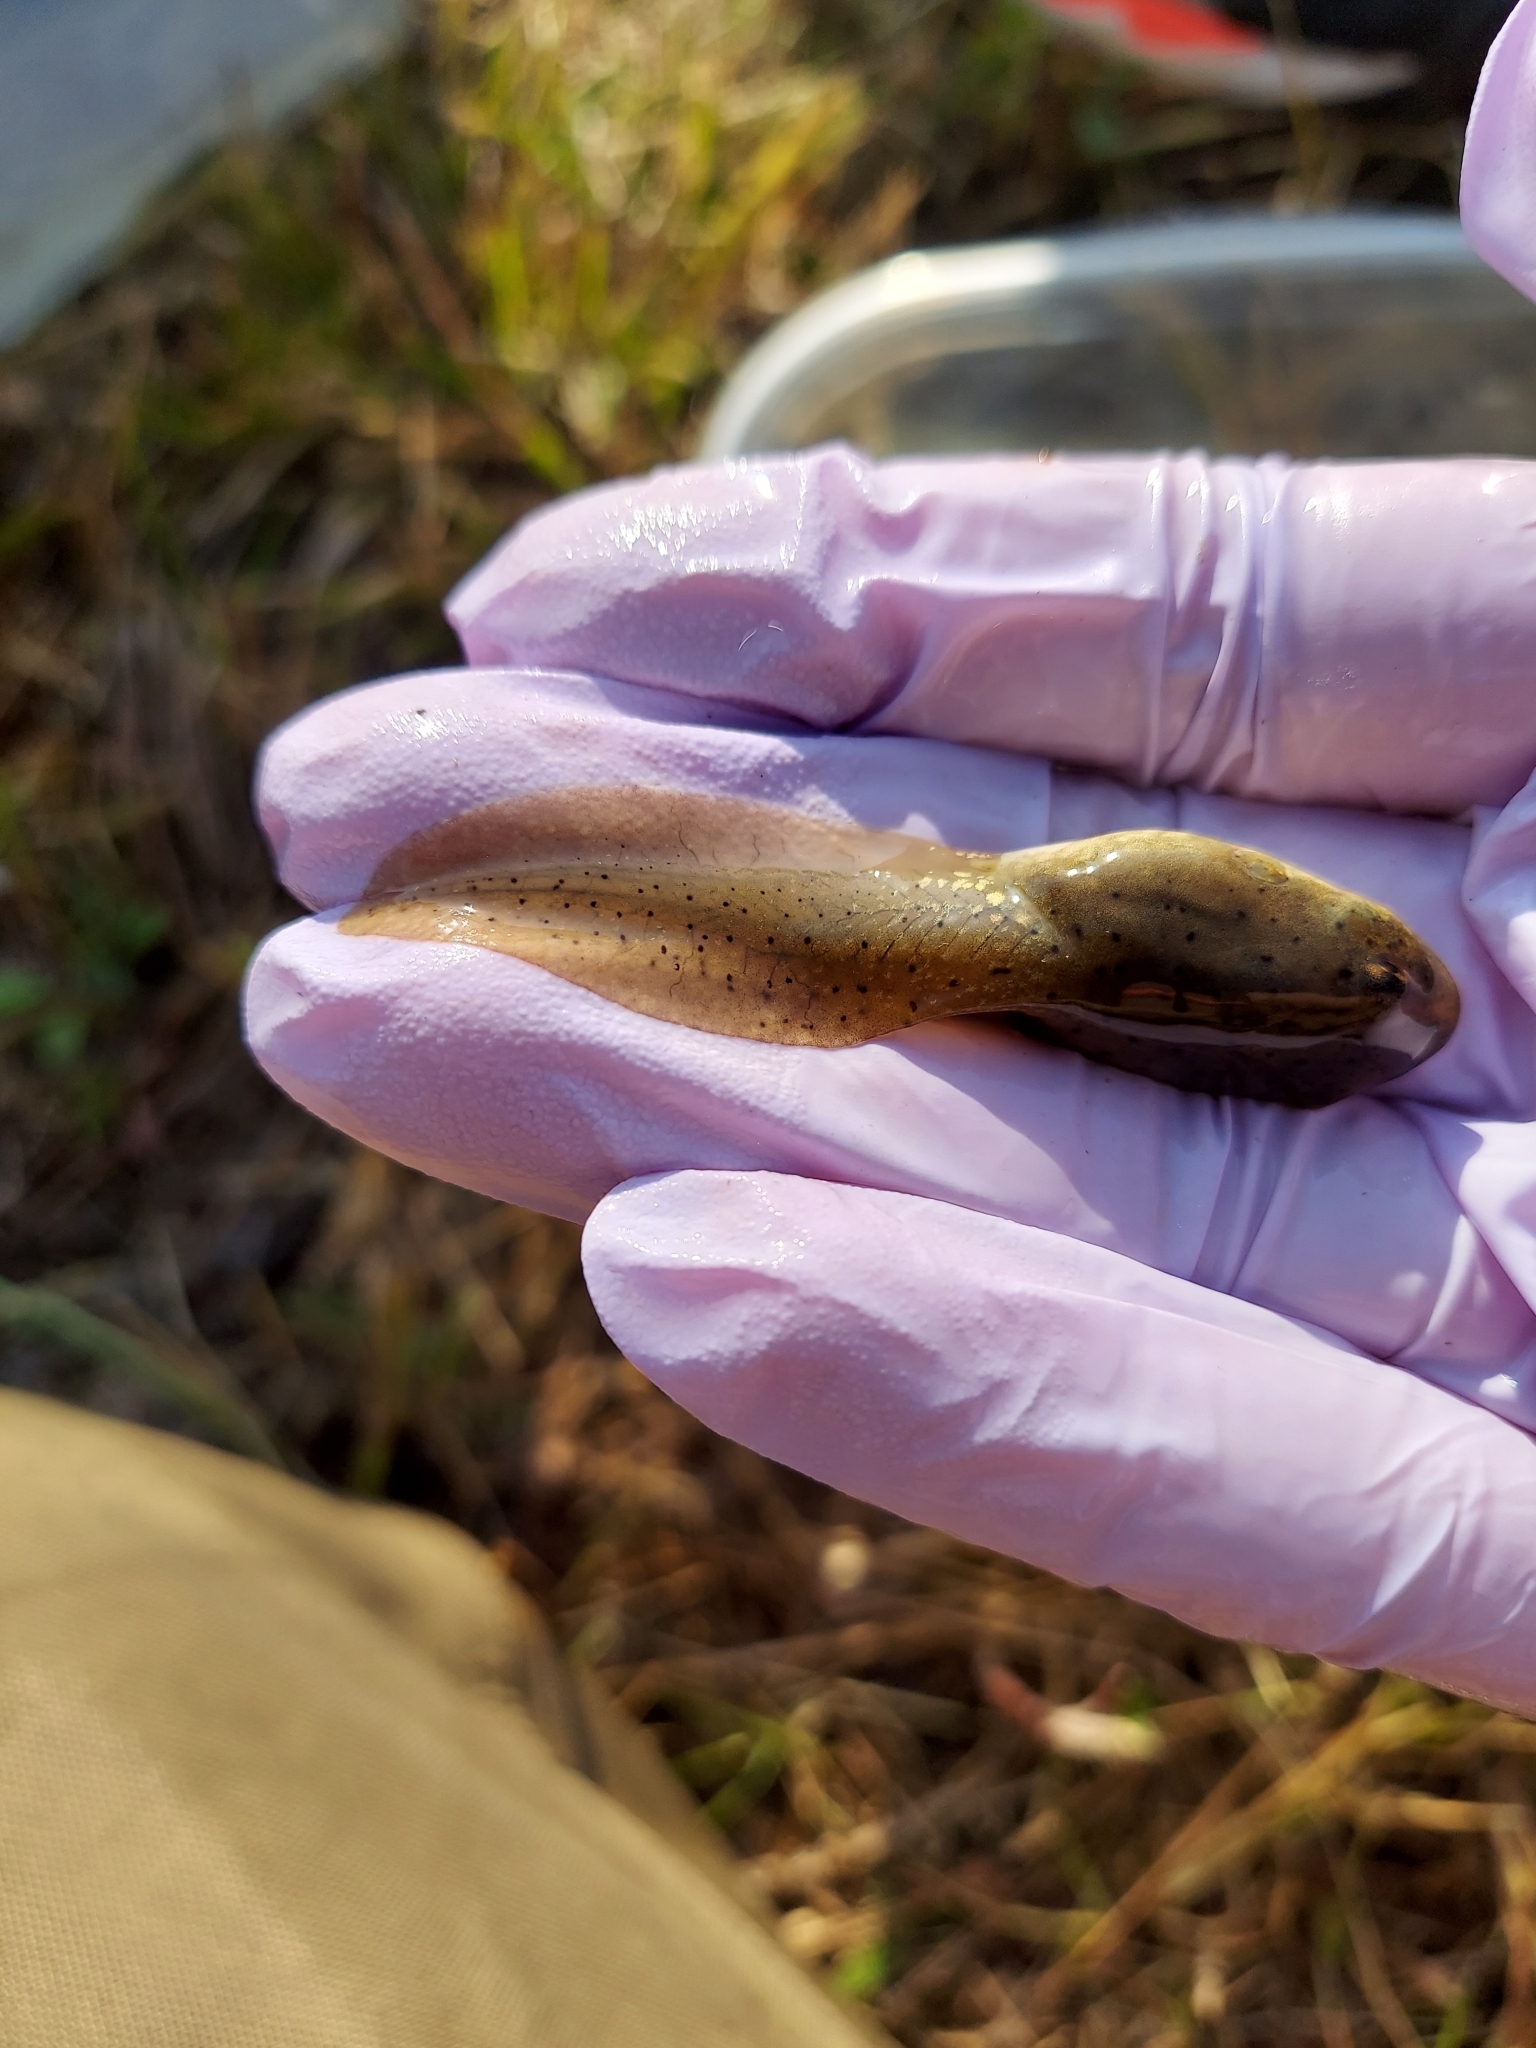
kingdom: Animalia
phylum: Chordata
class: Amphibia
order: Anura
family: Ranidae
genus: Lithobates
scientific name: Lithobates catesbeianus
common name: American bullfrog
